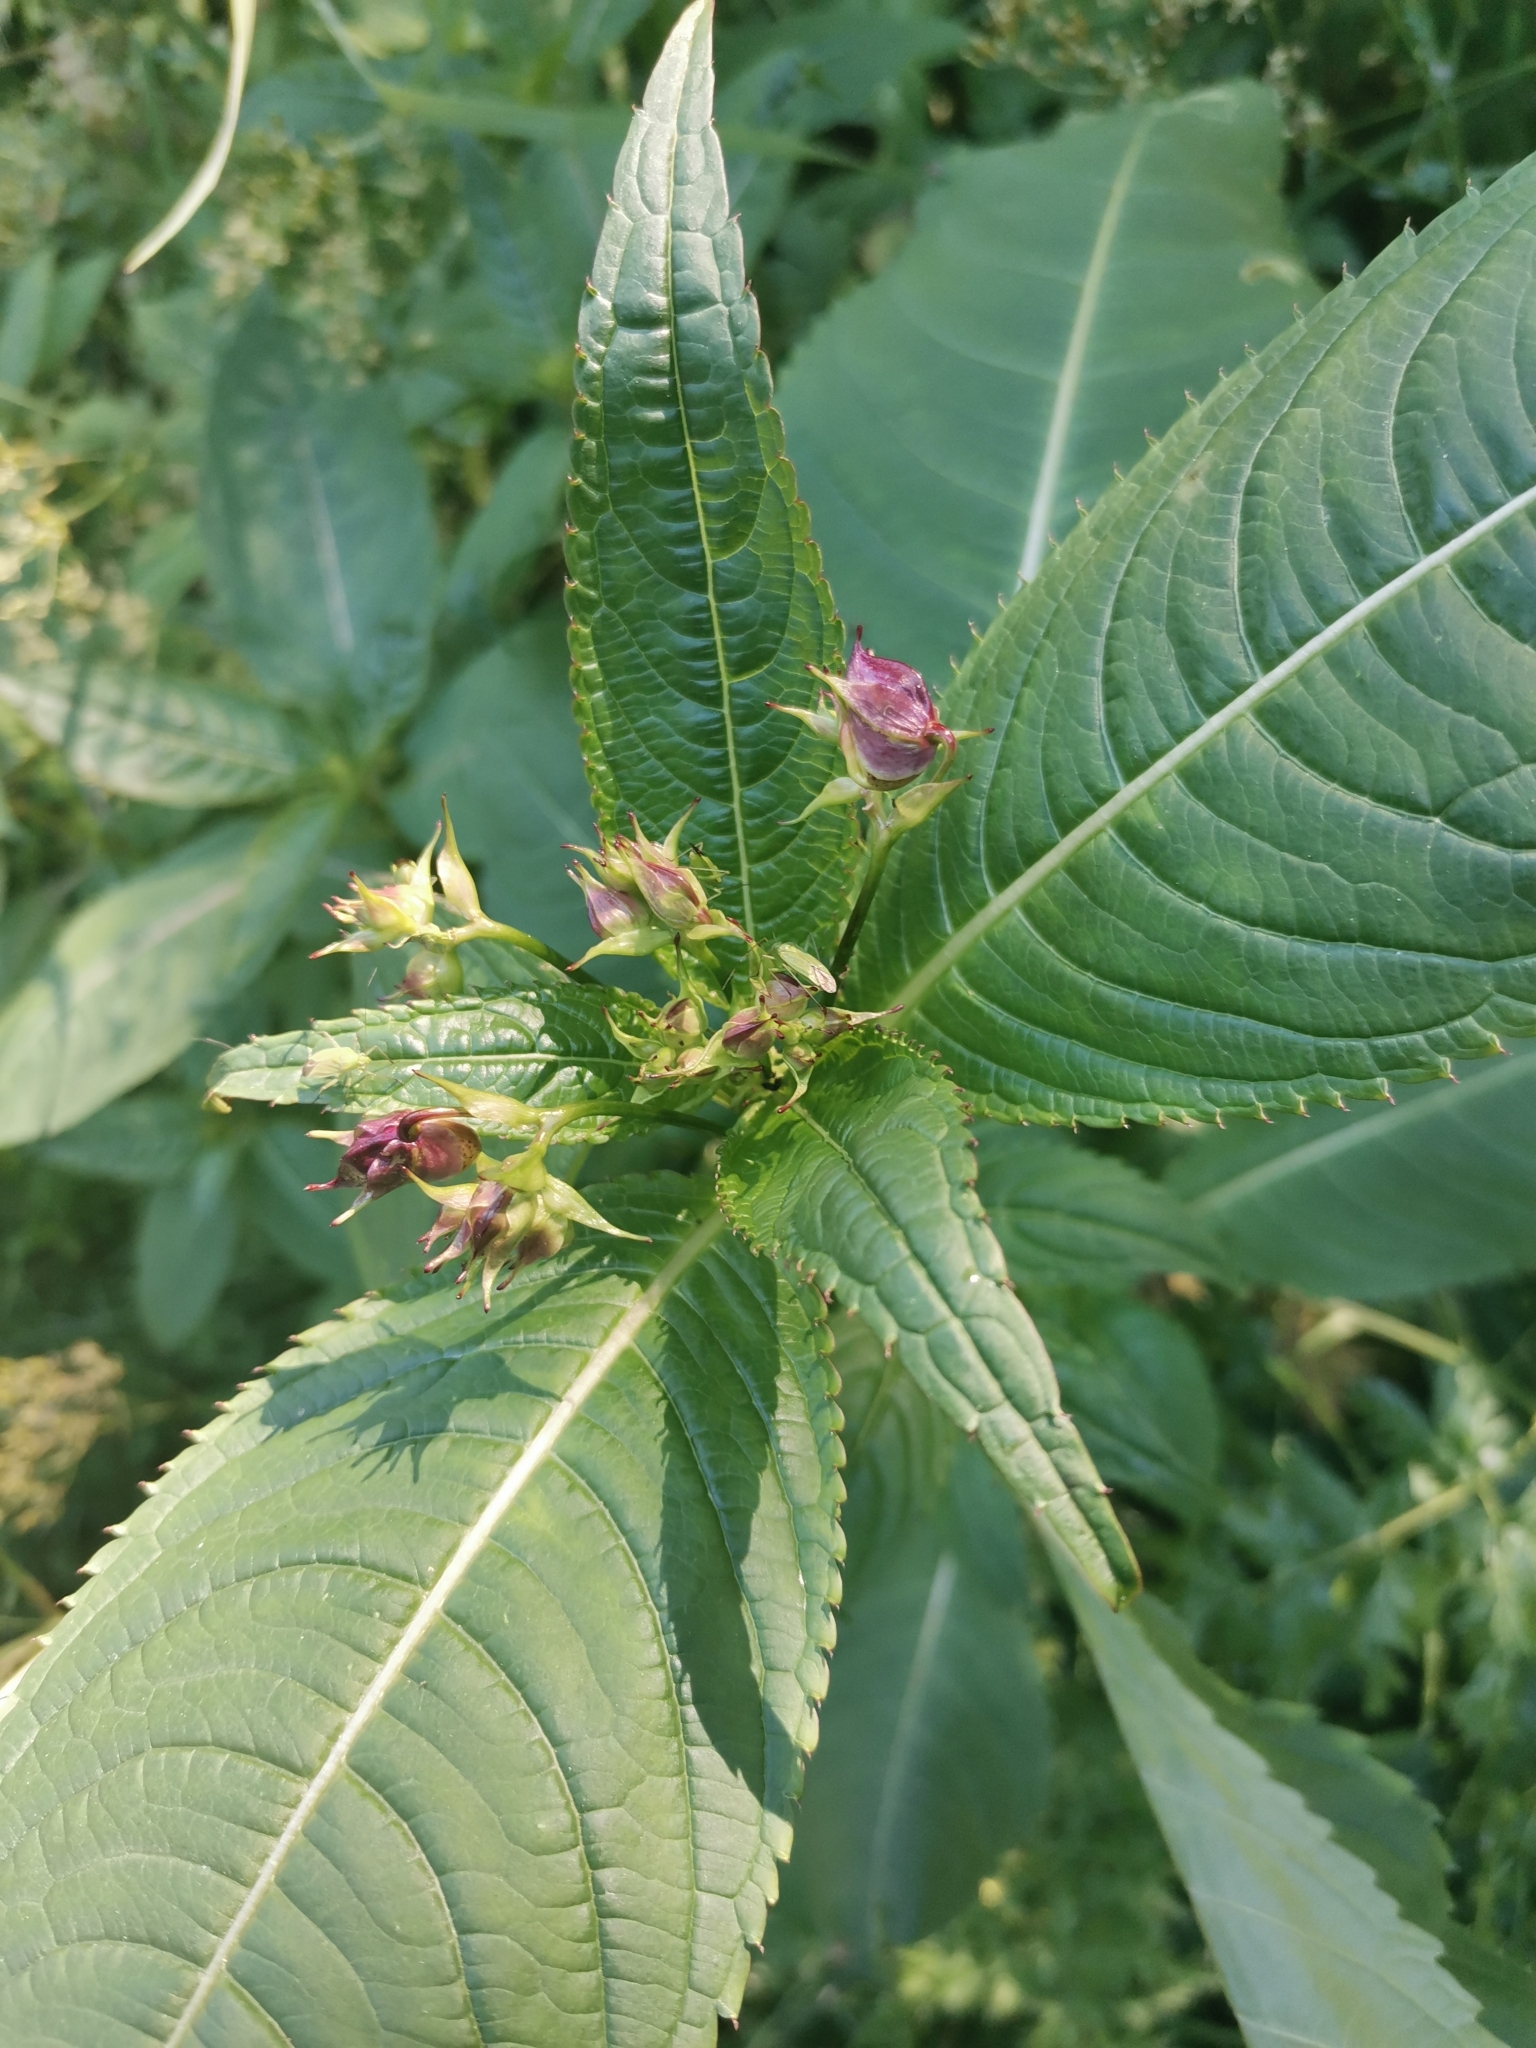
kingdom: Plantae
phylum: Tracheophyta
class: Magnoliopsida
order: Ericales
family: Balsaminaceae
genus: Impatiens
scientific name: Impatiens glandulifera
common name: Himalayan balsam
